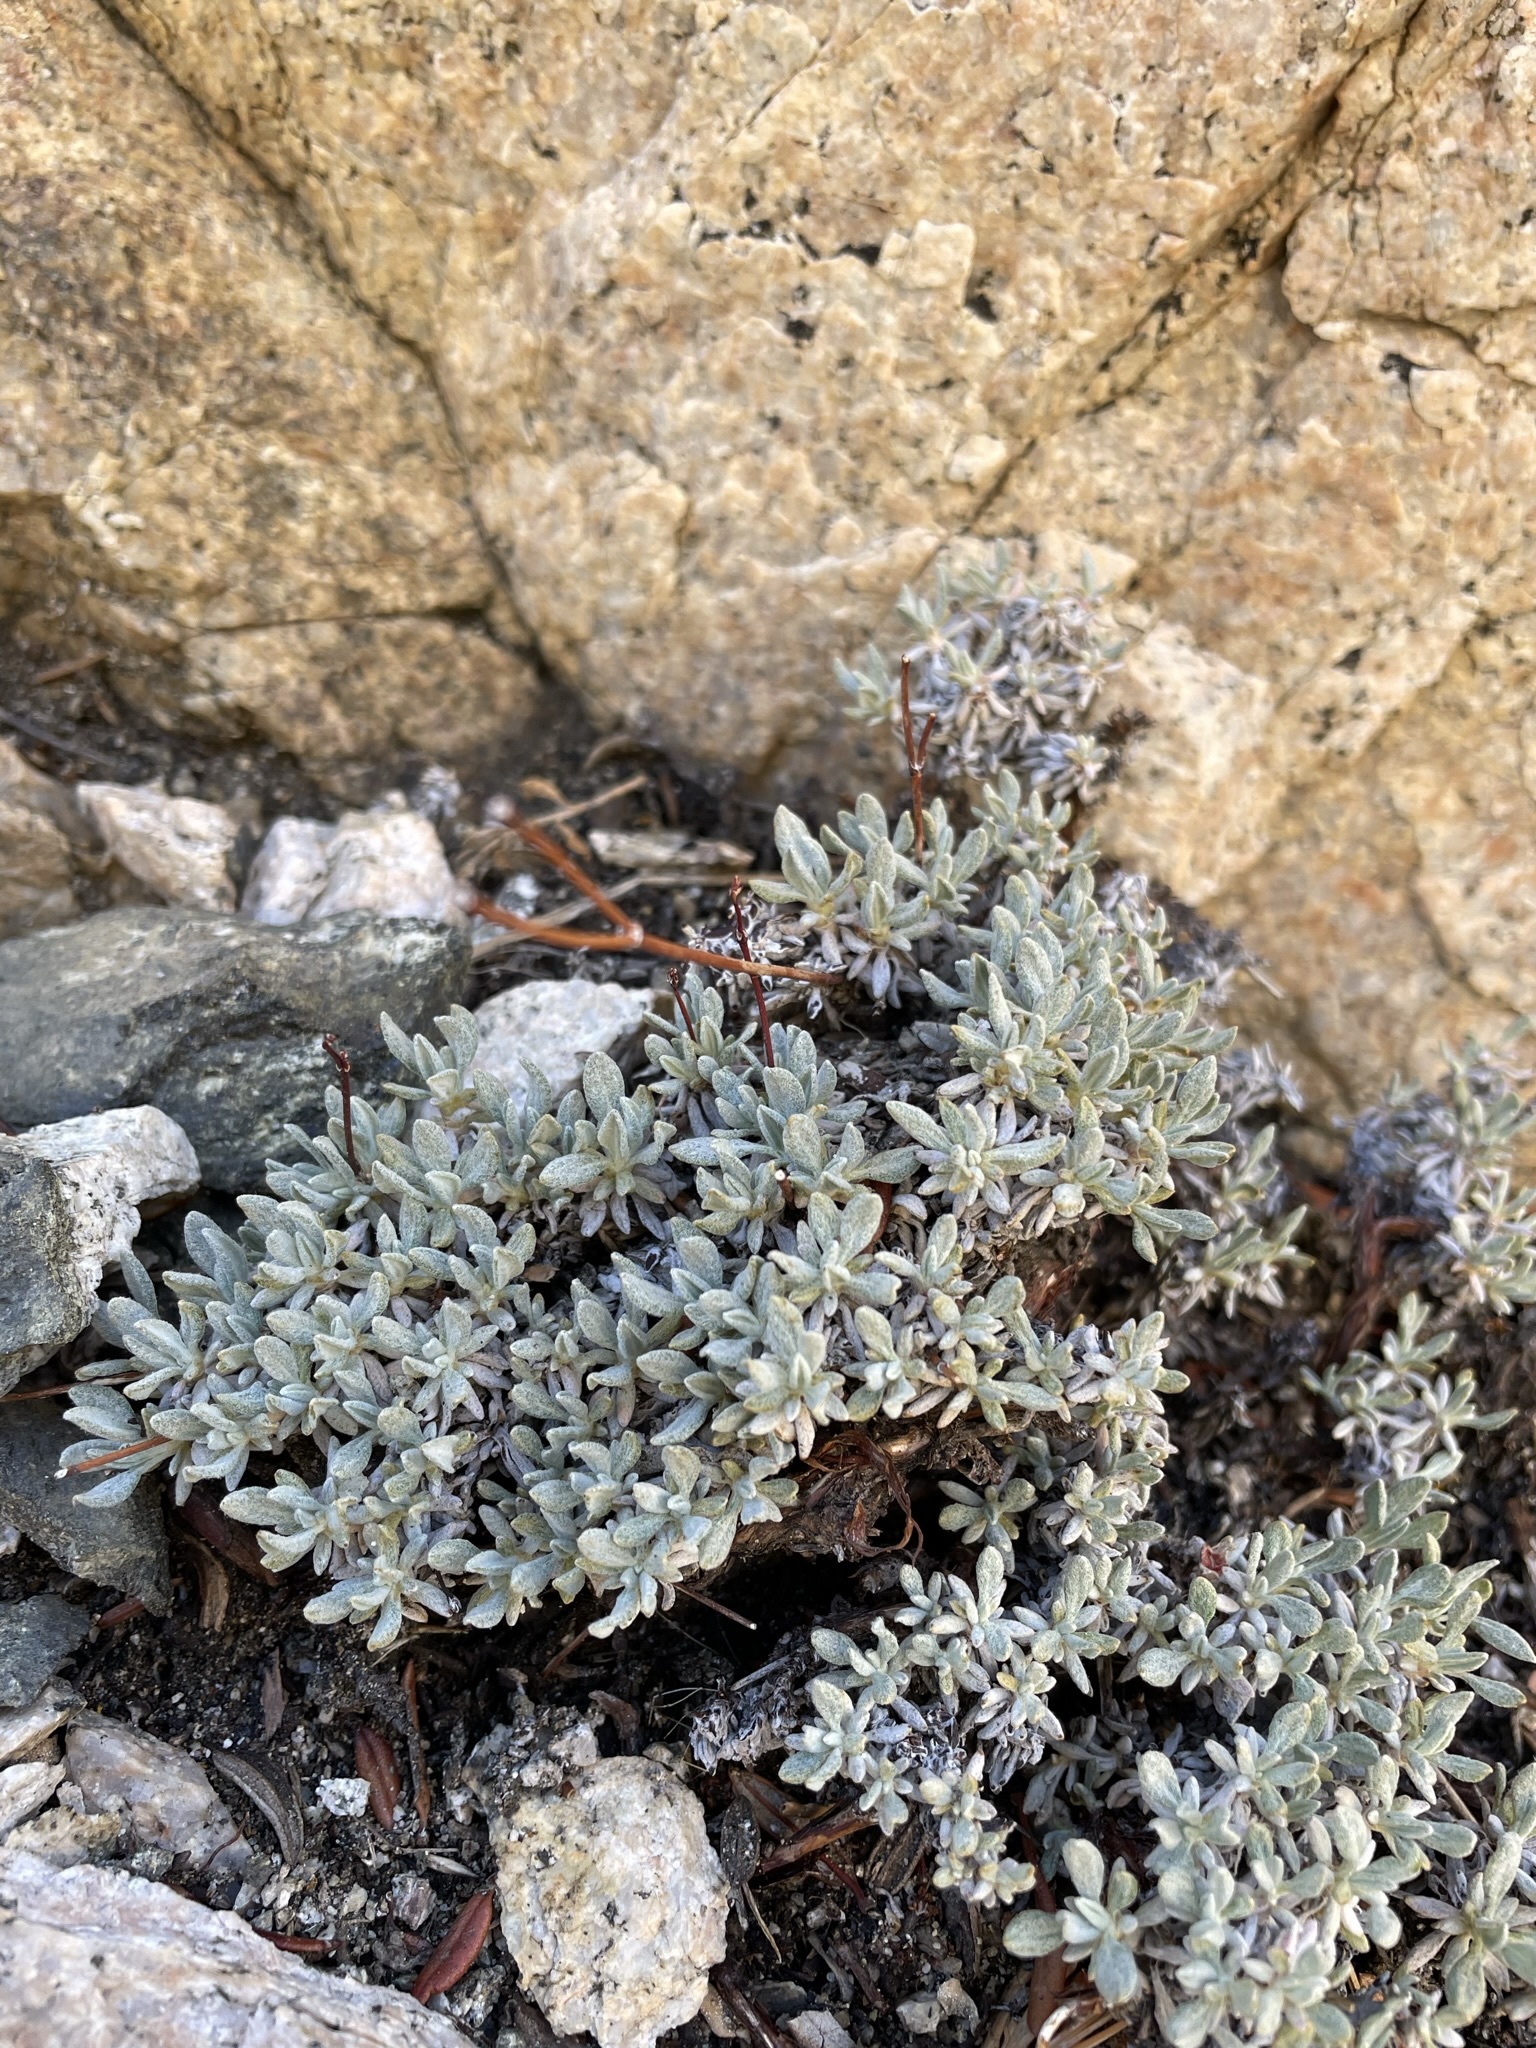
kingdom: Plantae
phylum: Tracheophyta
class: Magnoliopsida
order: Caryophyllales
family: Polygonaceae
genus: Eriogonum
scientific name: Eriogonum wrightii
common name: Bastard-sage
